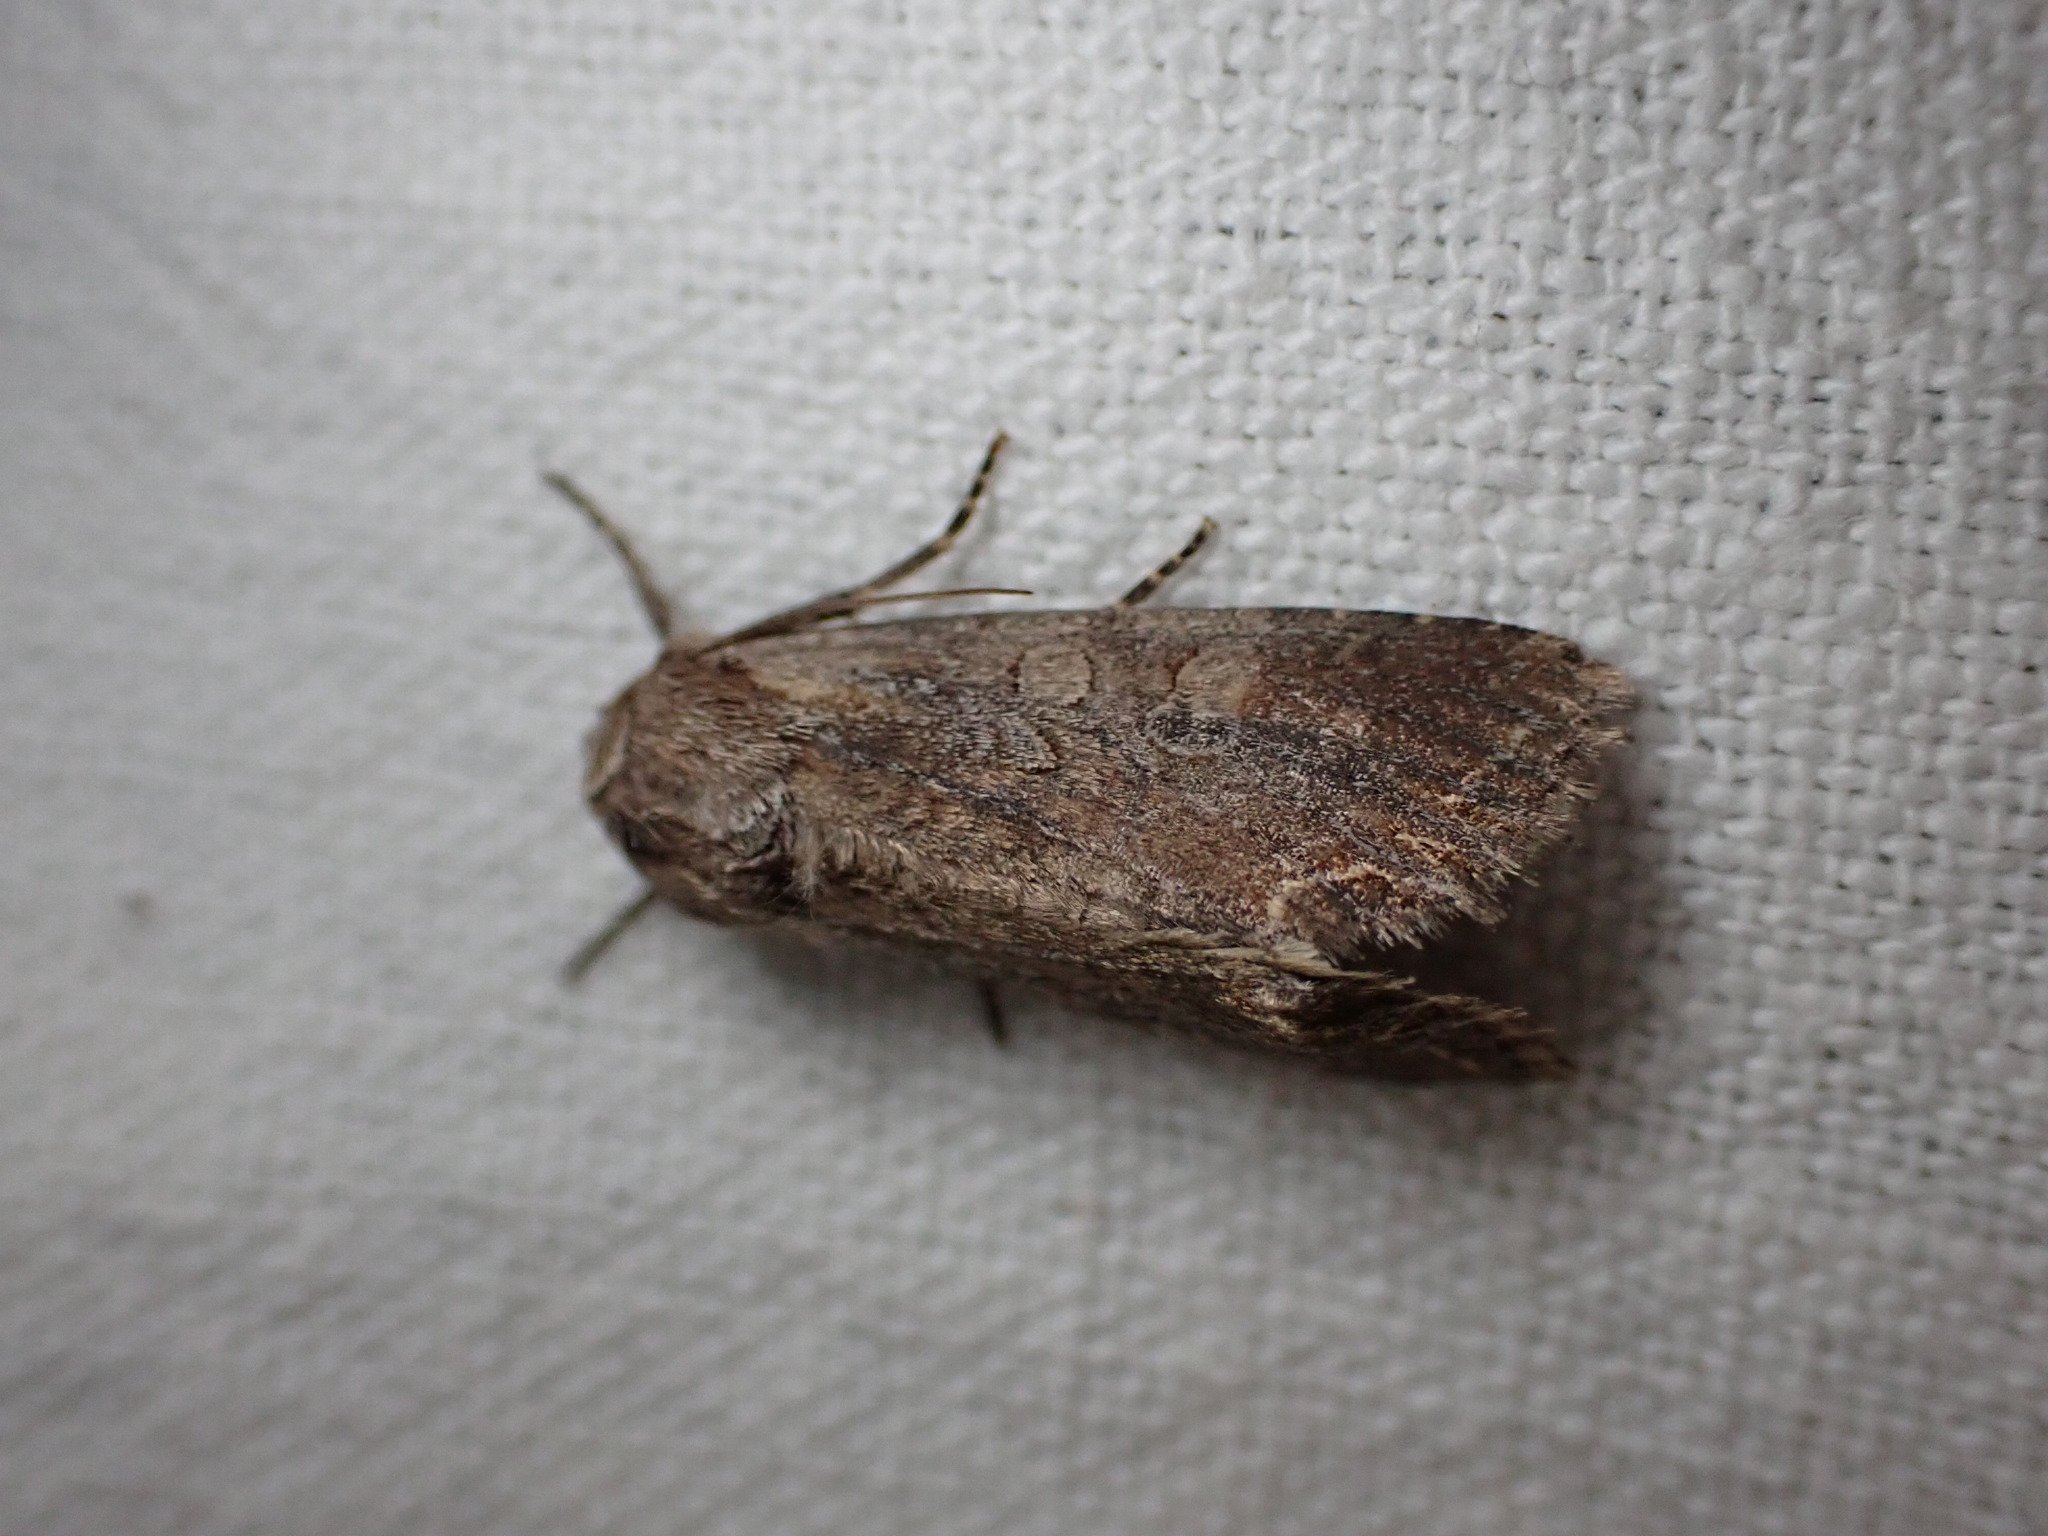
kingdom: Animalia
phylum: Arthropoda
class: Insecta
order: Lepidoptera
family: Noctuidae
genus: Lacanobia
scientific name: Lacanobia suasa
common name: Dog's tooth
